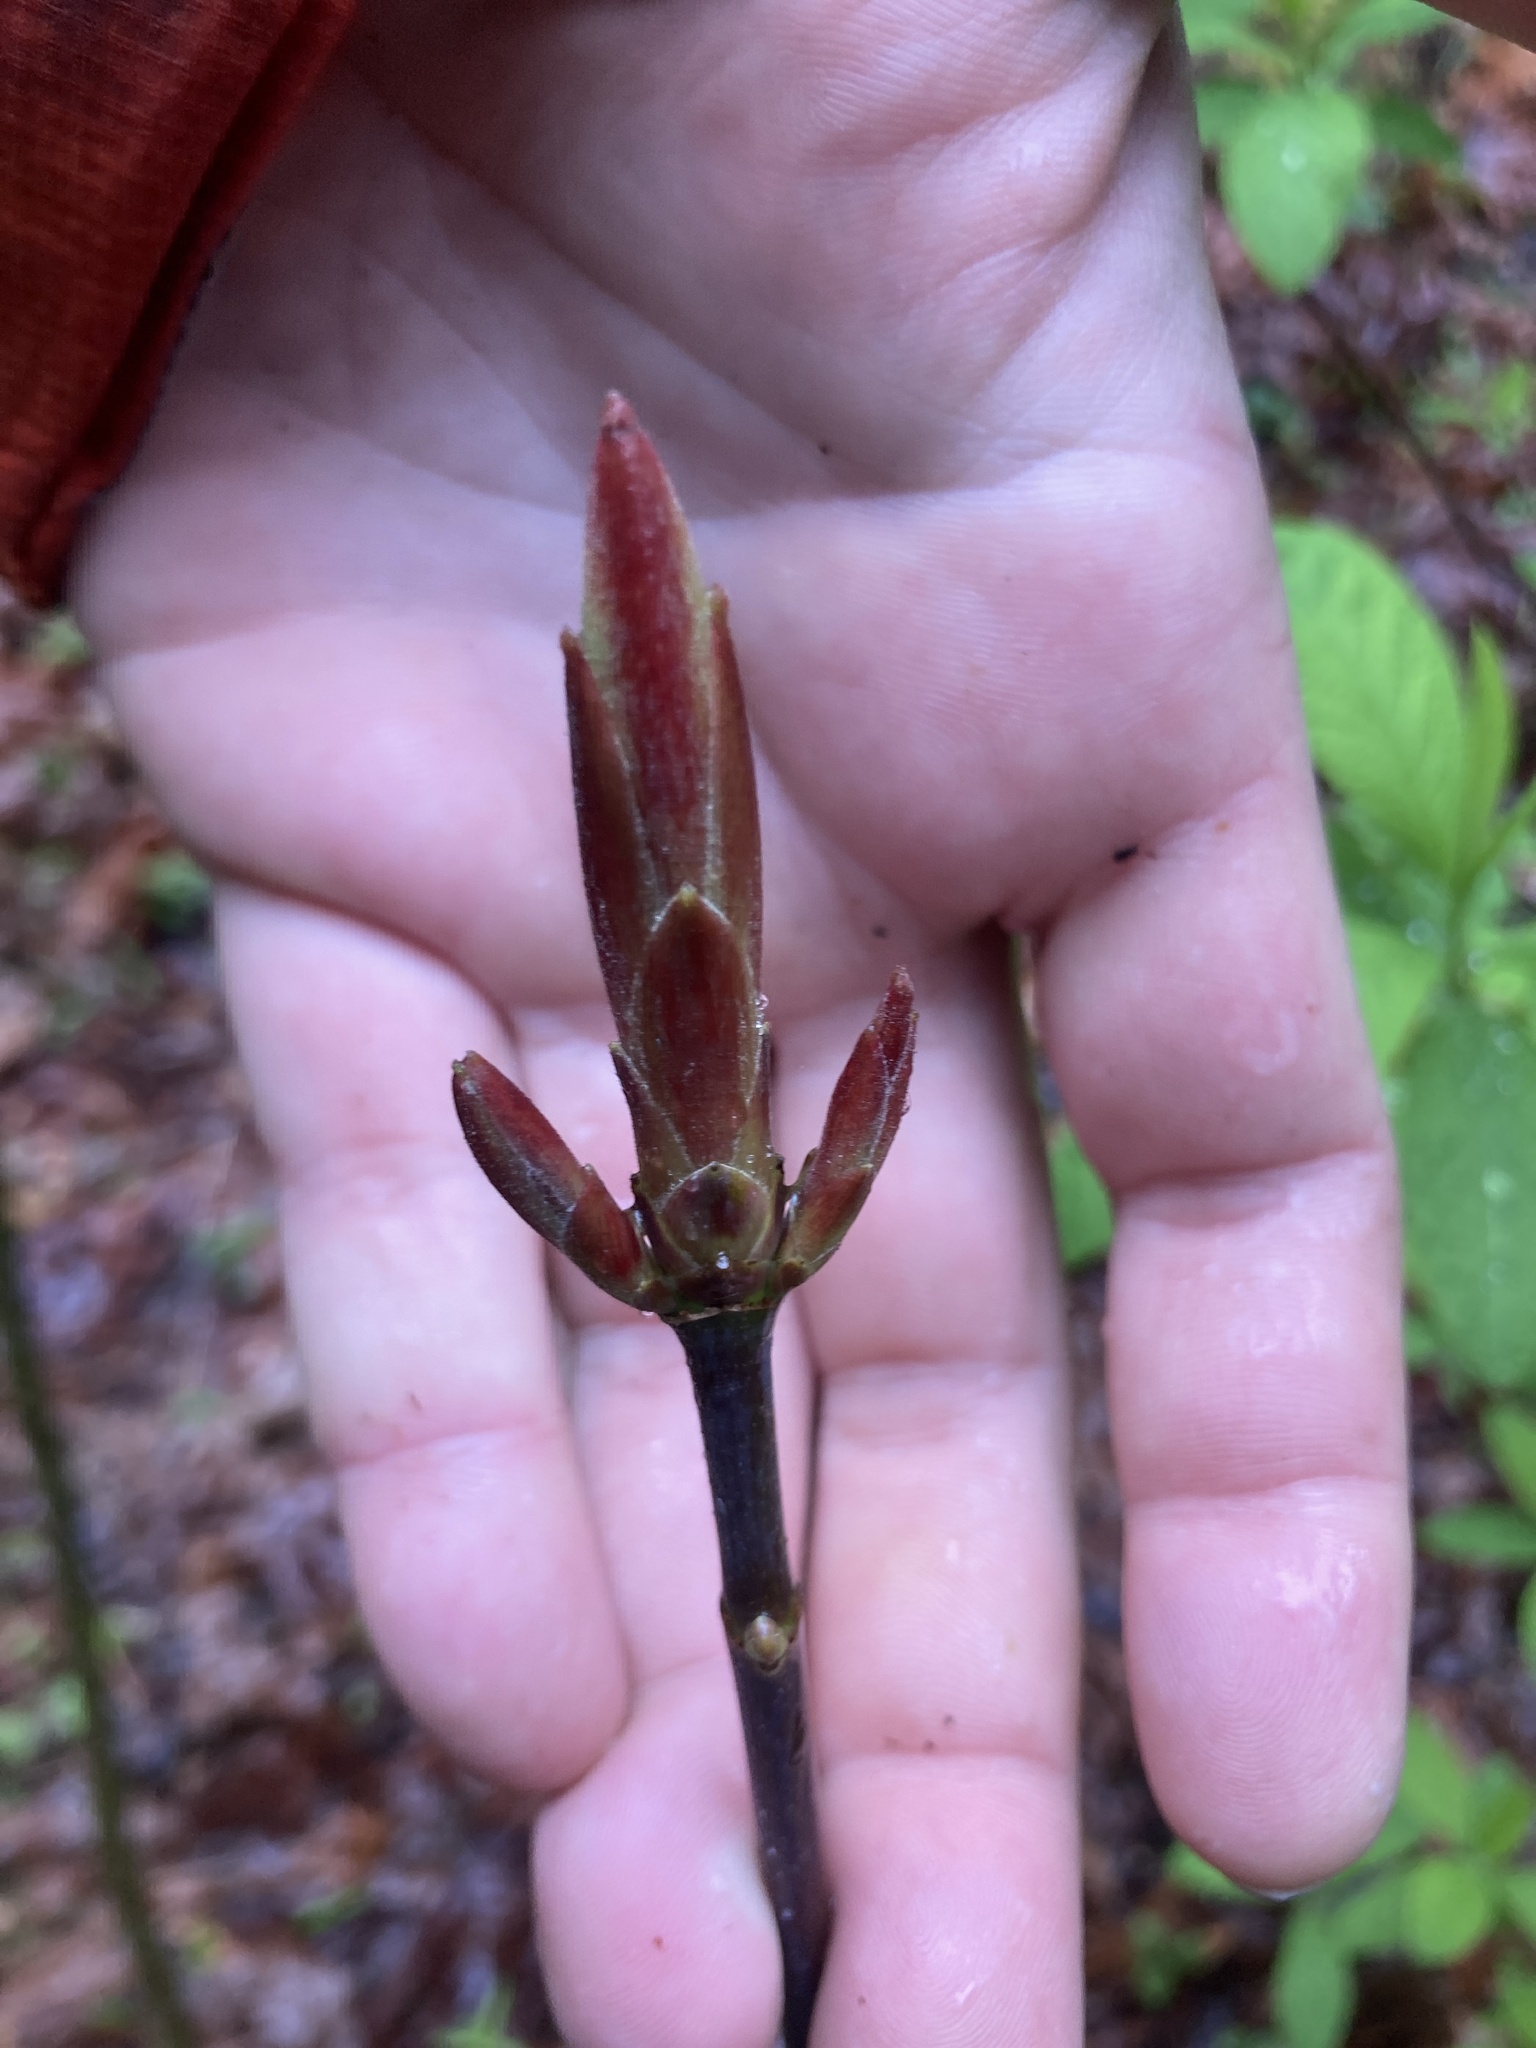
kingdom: Plantae
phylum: Tracheophyta
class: Magnoliopsida
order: Sapindales
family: Sapindaceae
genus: Acer
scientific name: Acer macrophyllum
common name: Oregon maple
